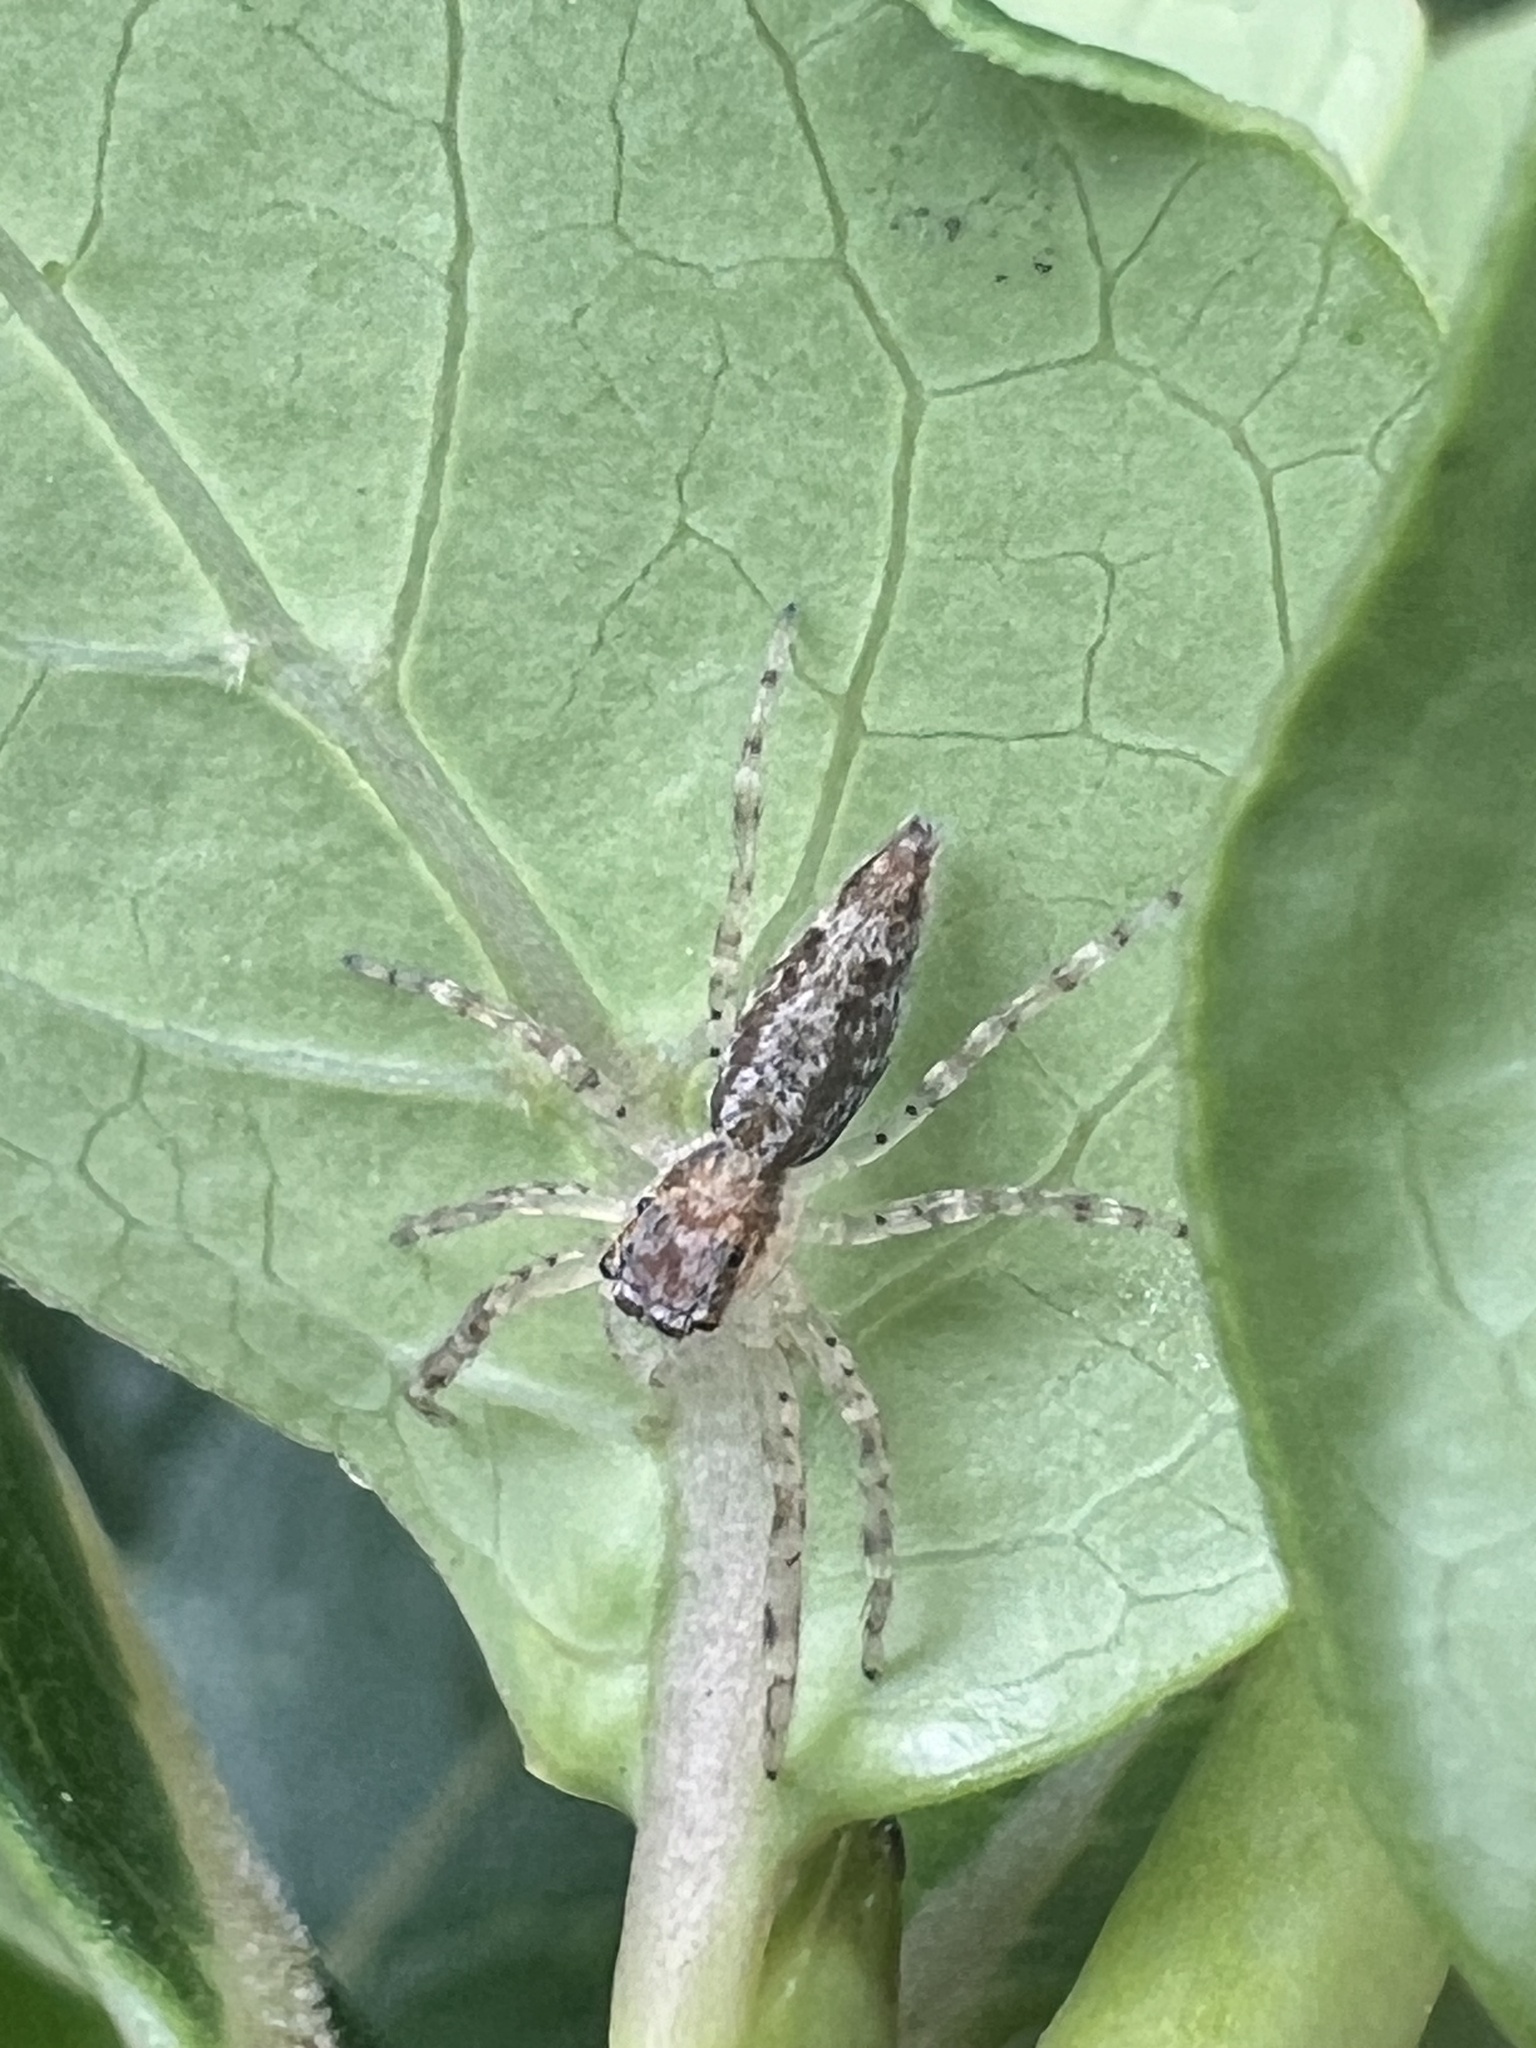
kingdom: Animalia
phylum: Arthropoda
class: Arachnida
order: Araneae
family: Salticidae
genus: Helpis
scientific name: Helpis minitabunda
